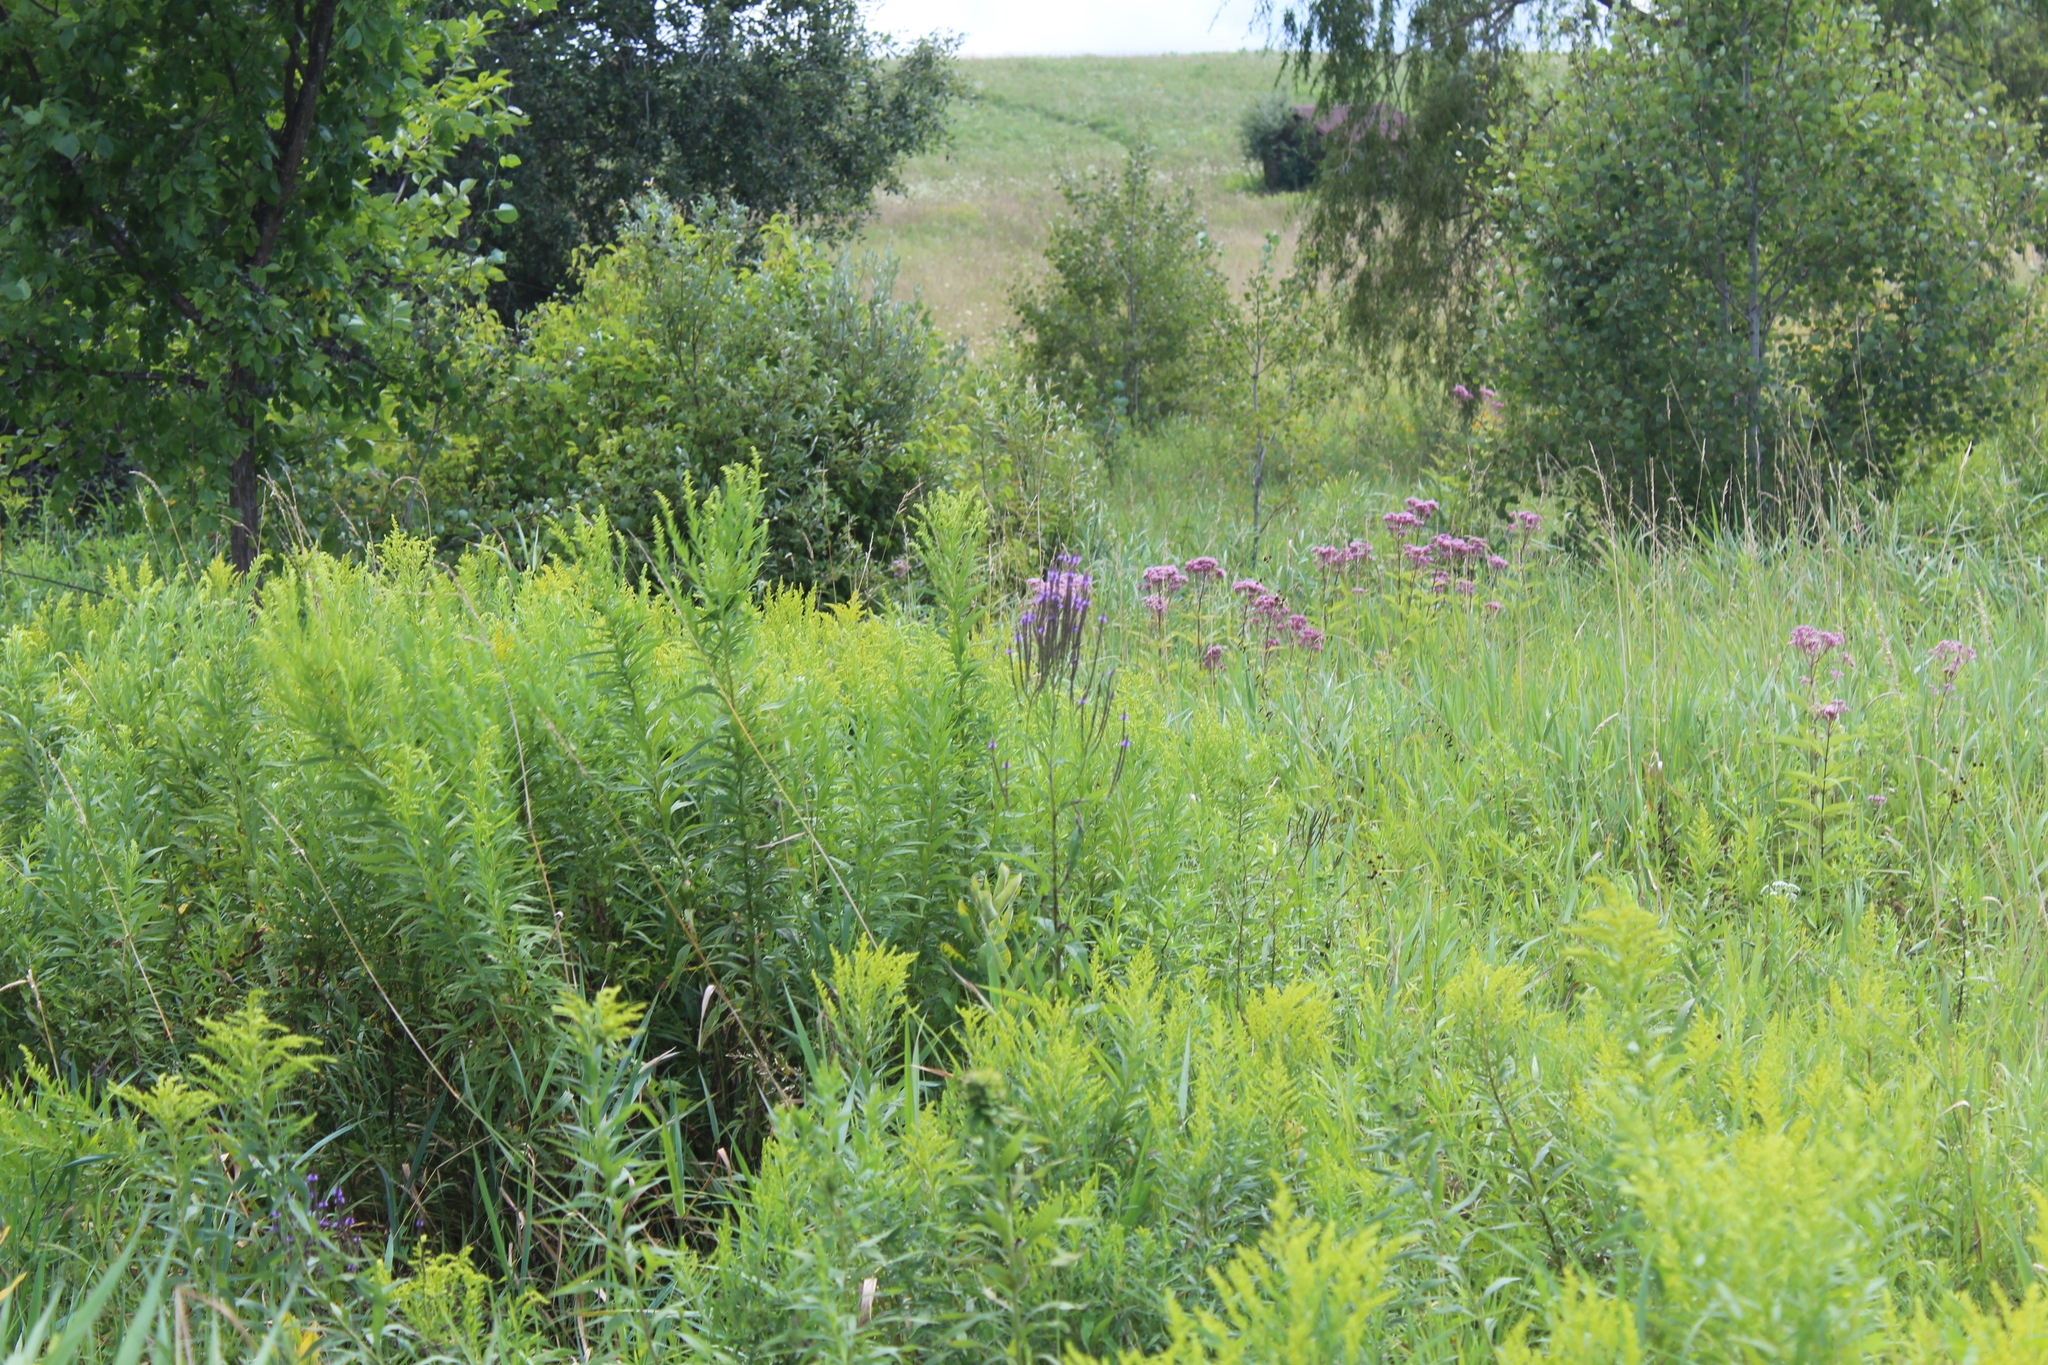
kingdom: Plantae
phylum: Tracheophyta
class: Magnoliopsida
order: Lamiales
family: Verbenaceae
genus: Verbena
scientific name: Verbena hastata
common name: American blue vervain
